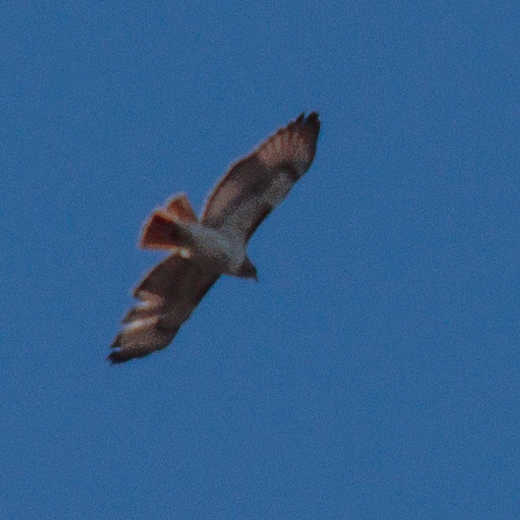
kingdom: Animalia
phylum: Chordata
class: Aves
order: Accipitriformes
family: Accipitridae
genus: Buteo
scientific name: Buteo jamaicensis
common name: Red-tailed hawk
